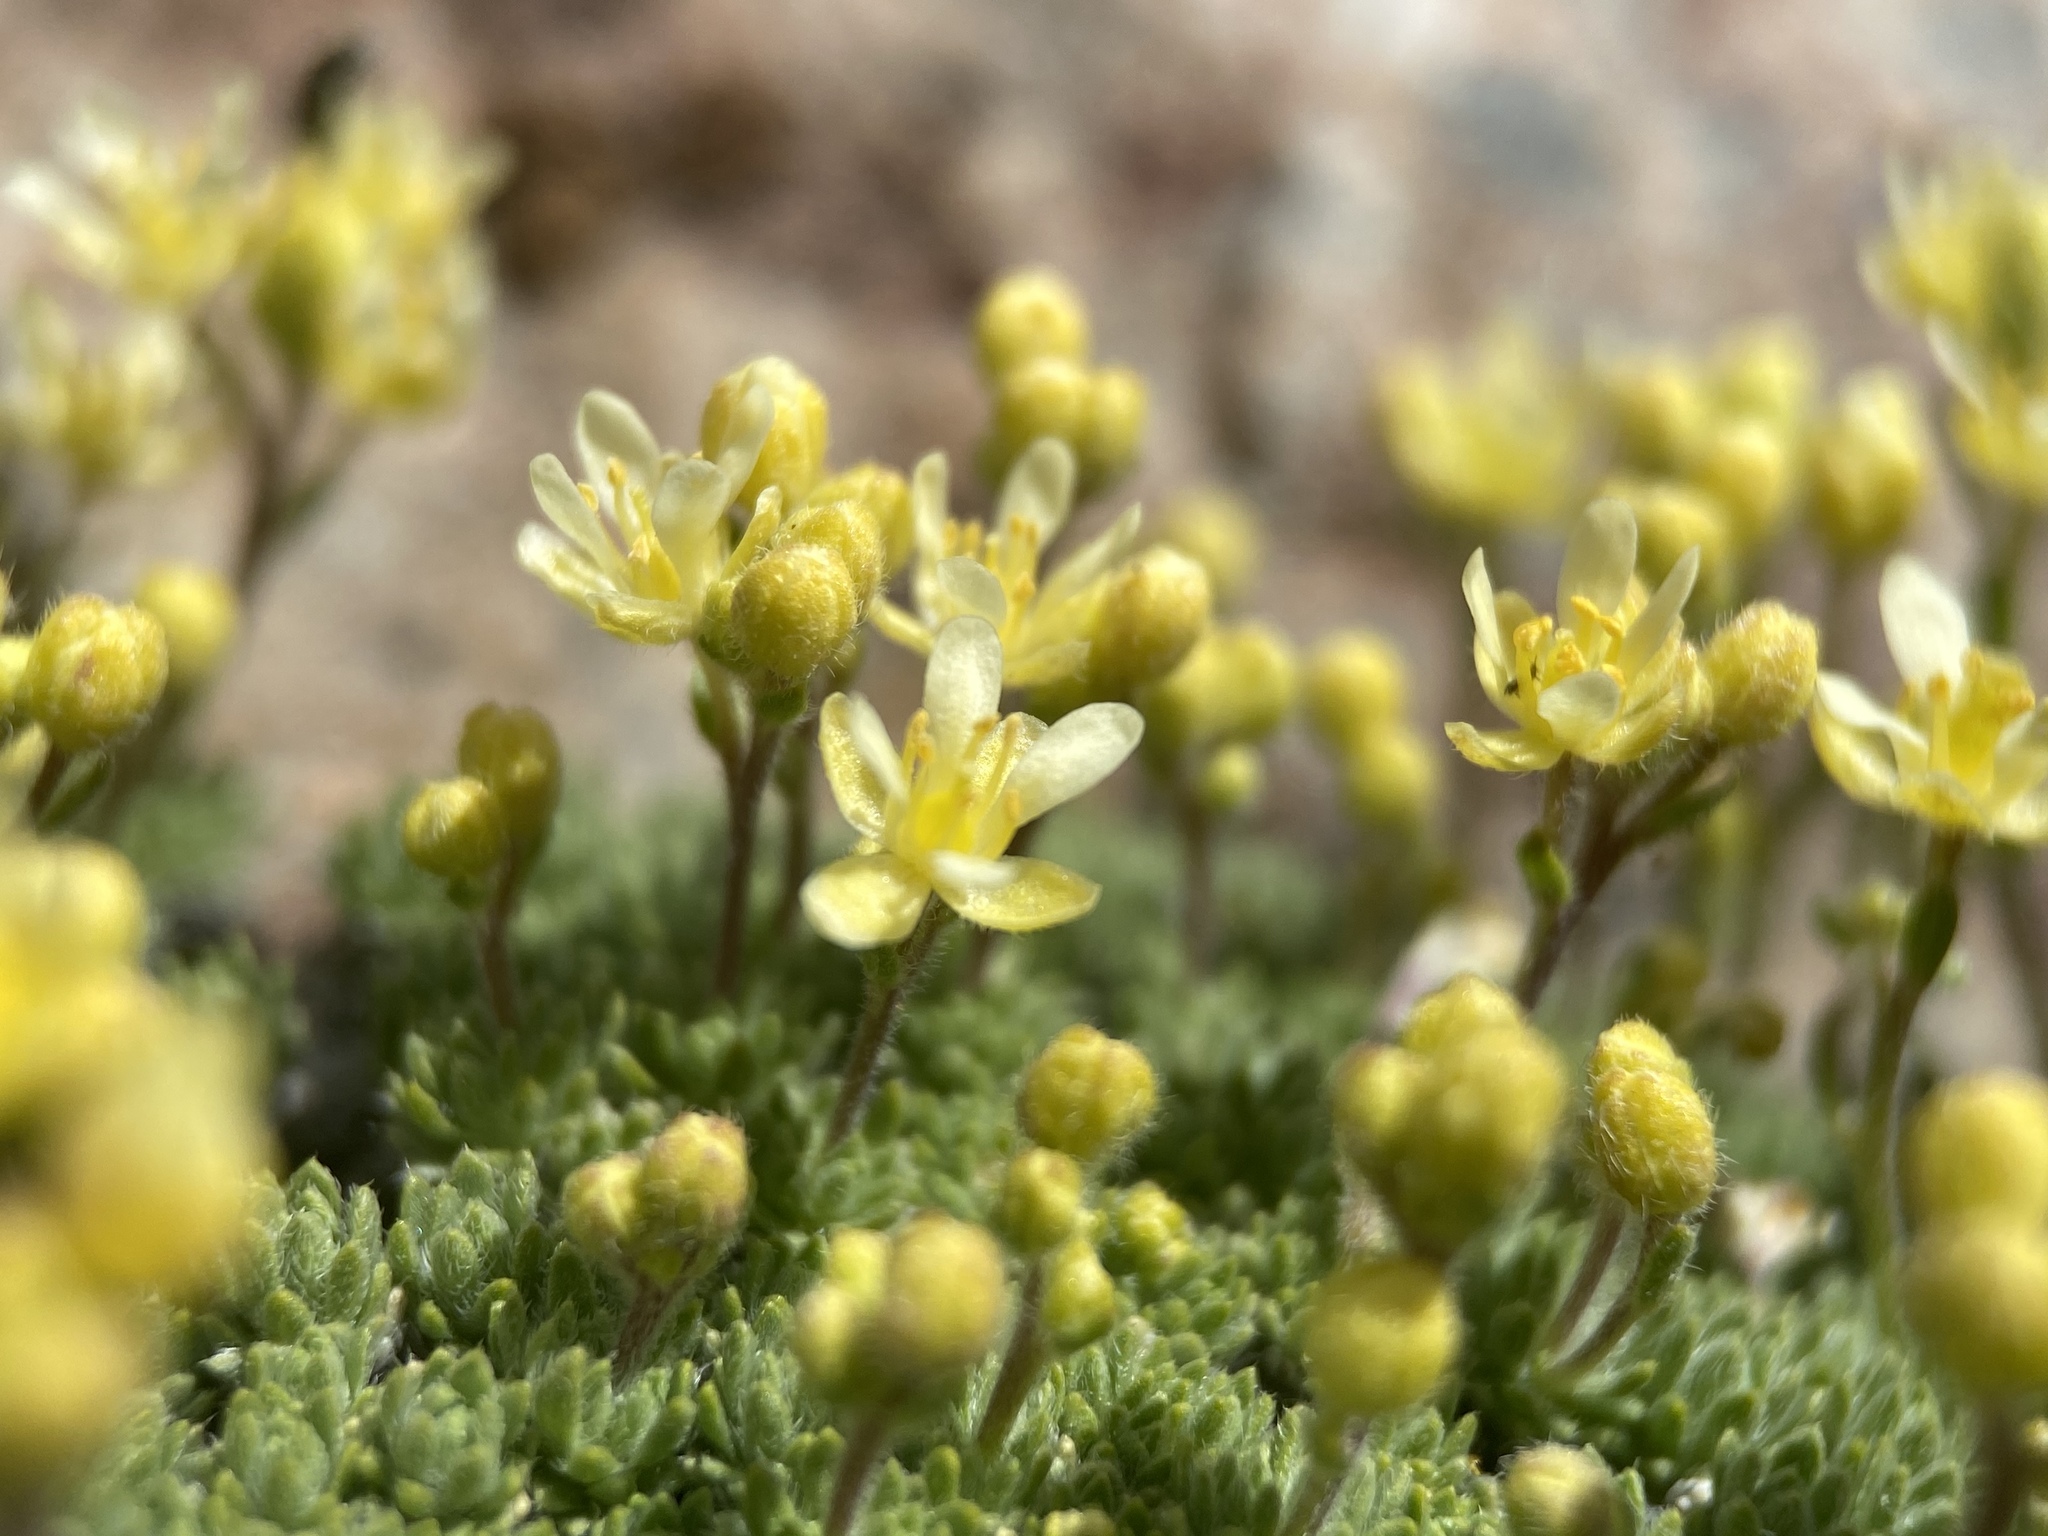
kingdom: Plantae
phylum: Tracheophyta
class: Magnoliopsida
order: Brassicales
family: Brassicaceae
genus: Cusickiella
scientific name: Cusickiella quadricostata
